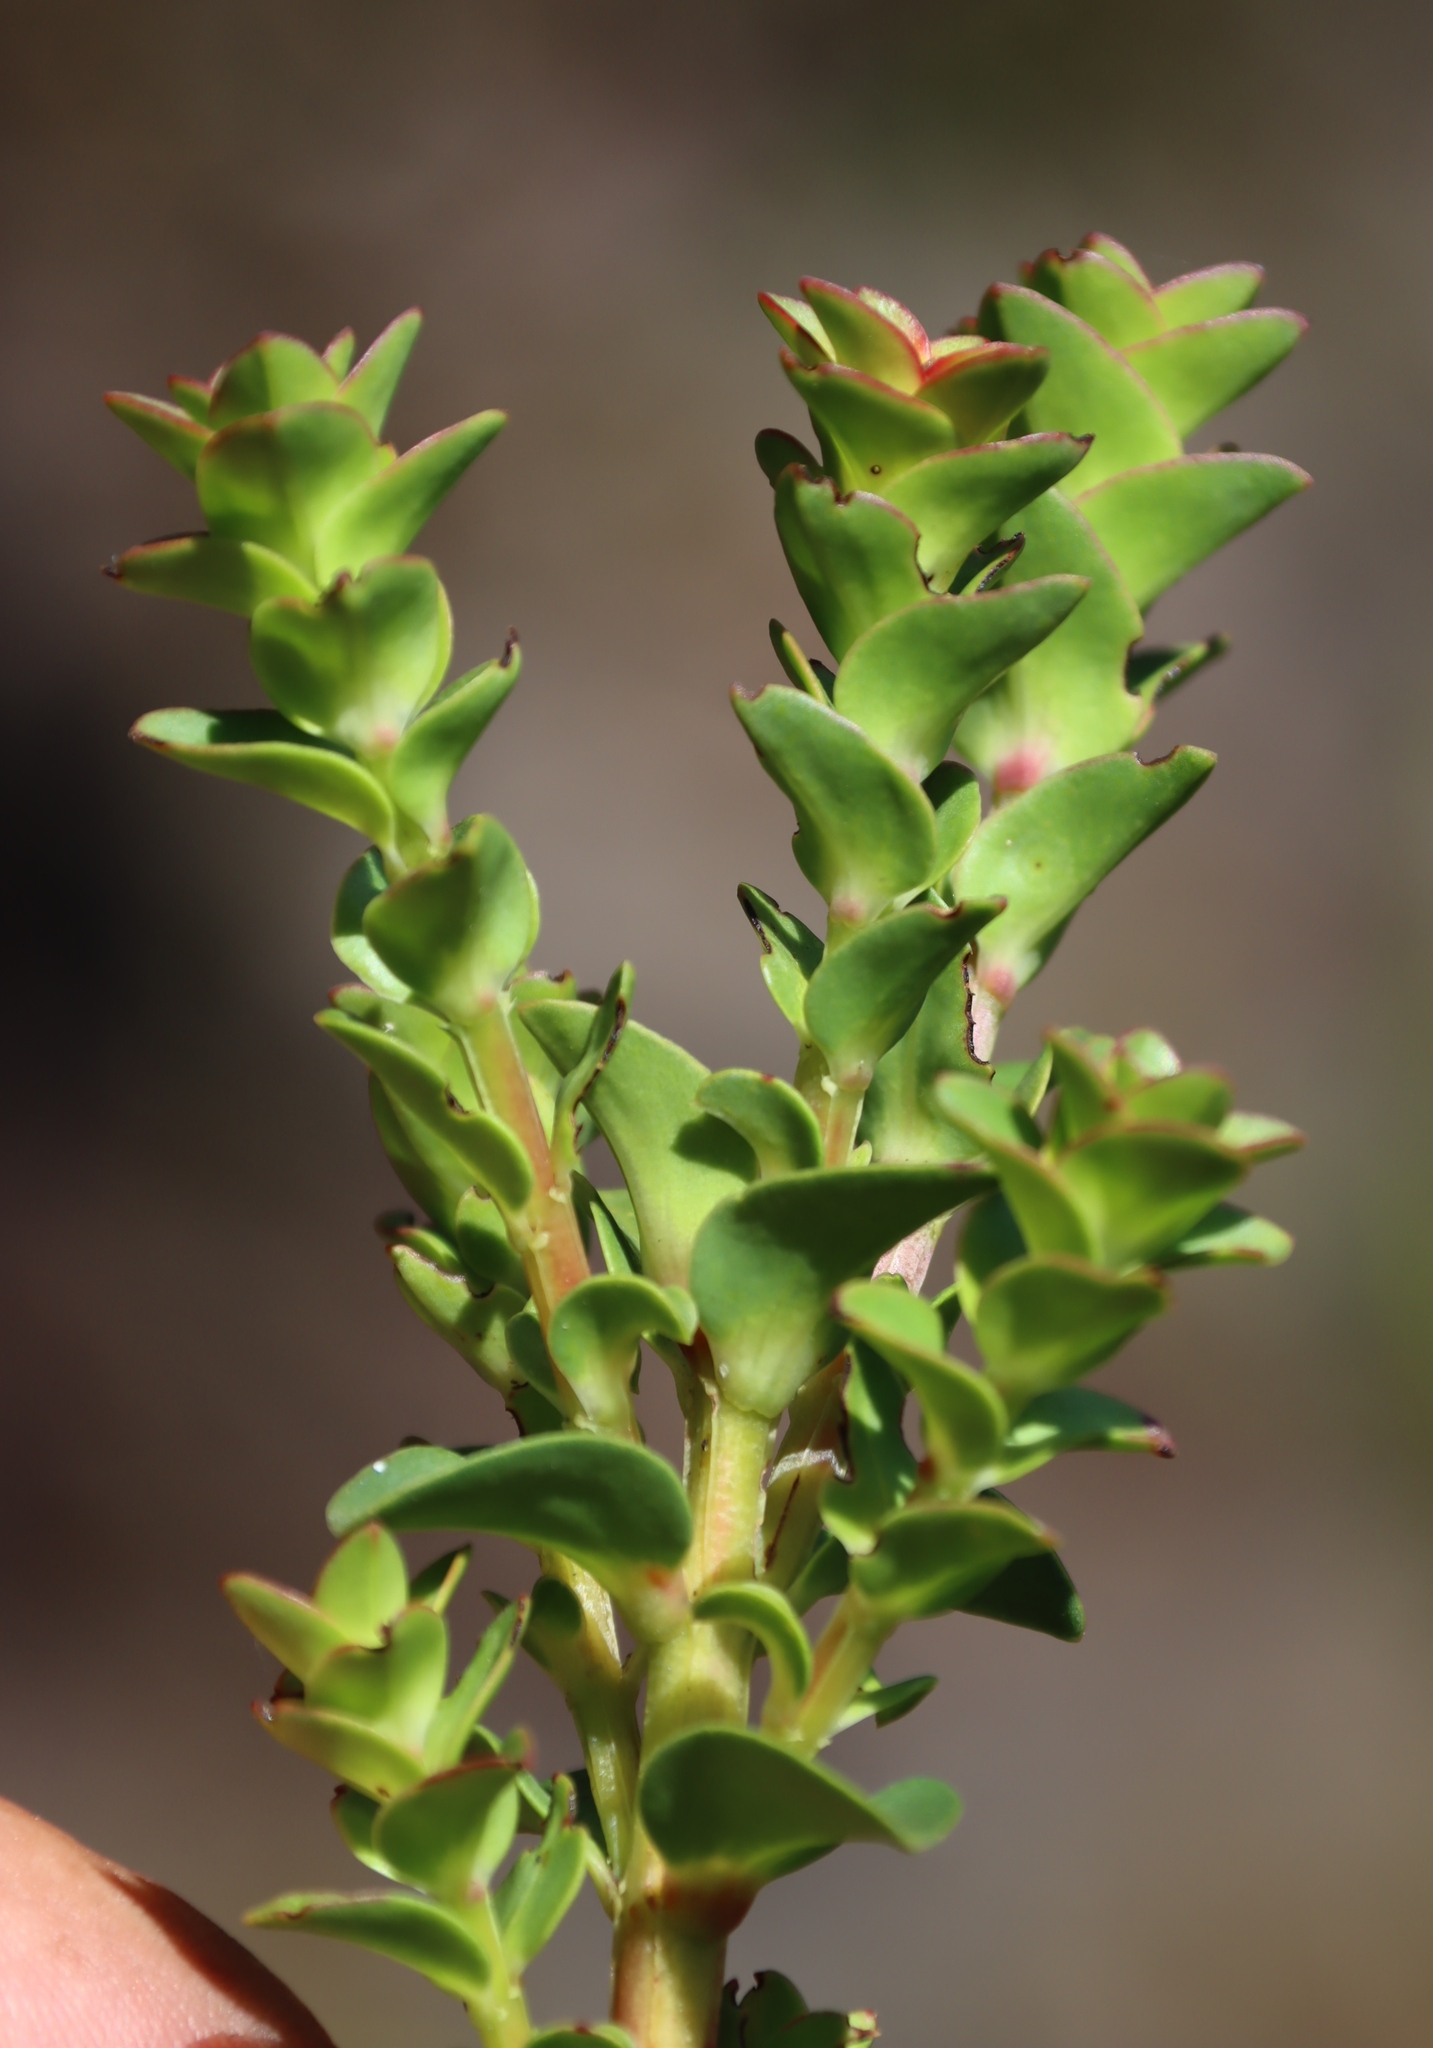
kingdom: Plantae
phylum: Tracheophyta
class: Magnoliopsida
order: Myrtales
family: Penaeaceae
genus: Penaea
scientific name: Penaea cneorum
